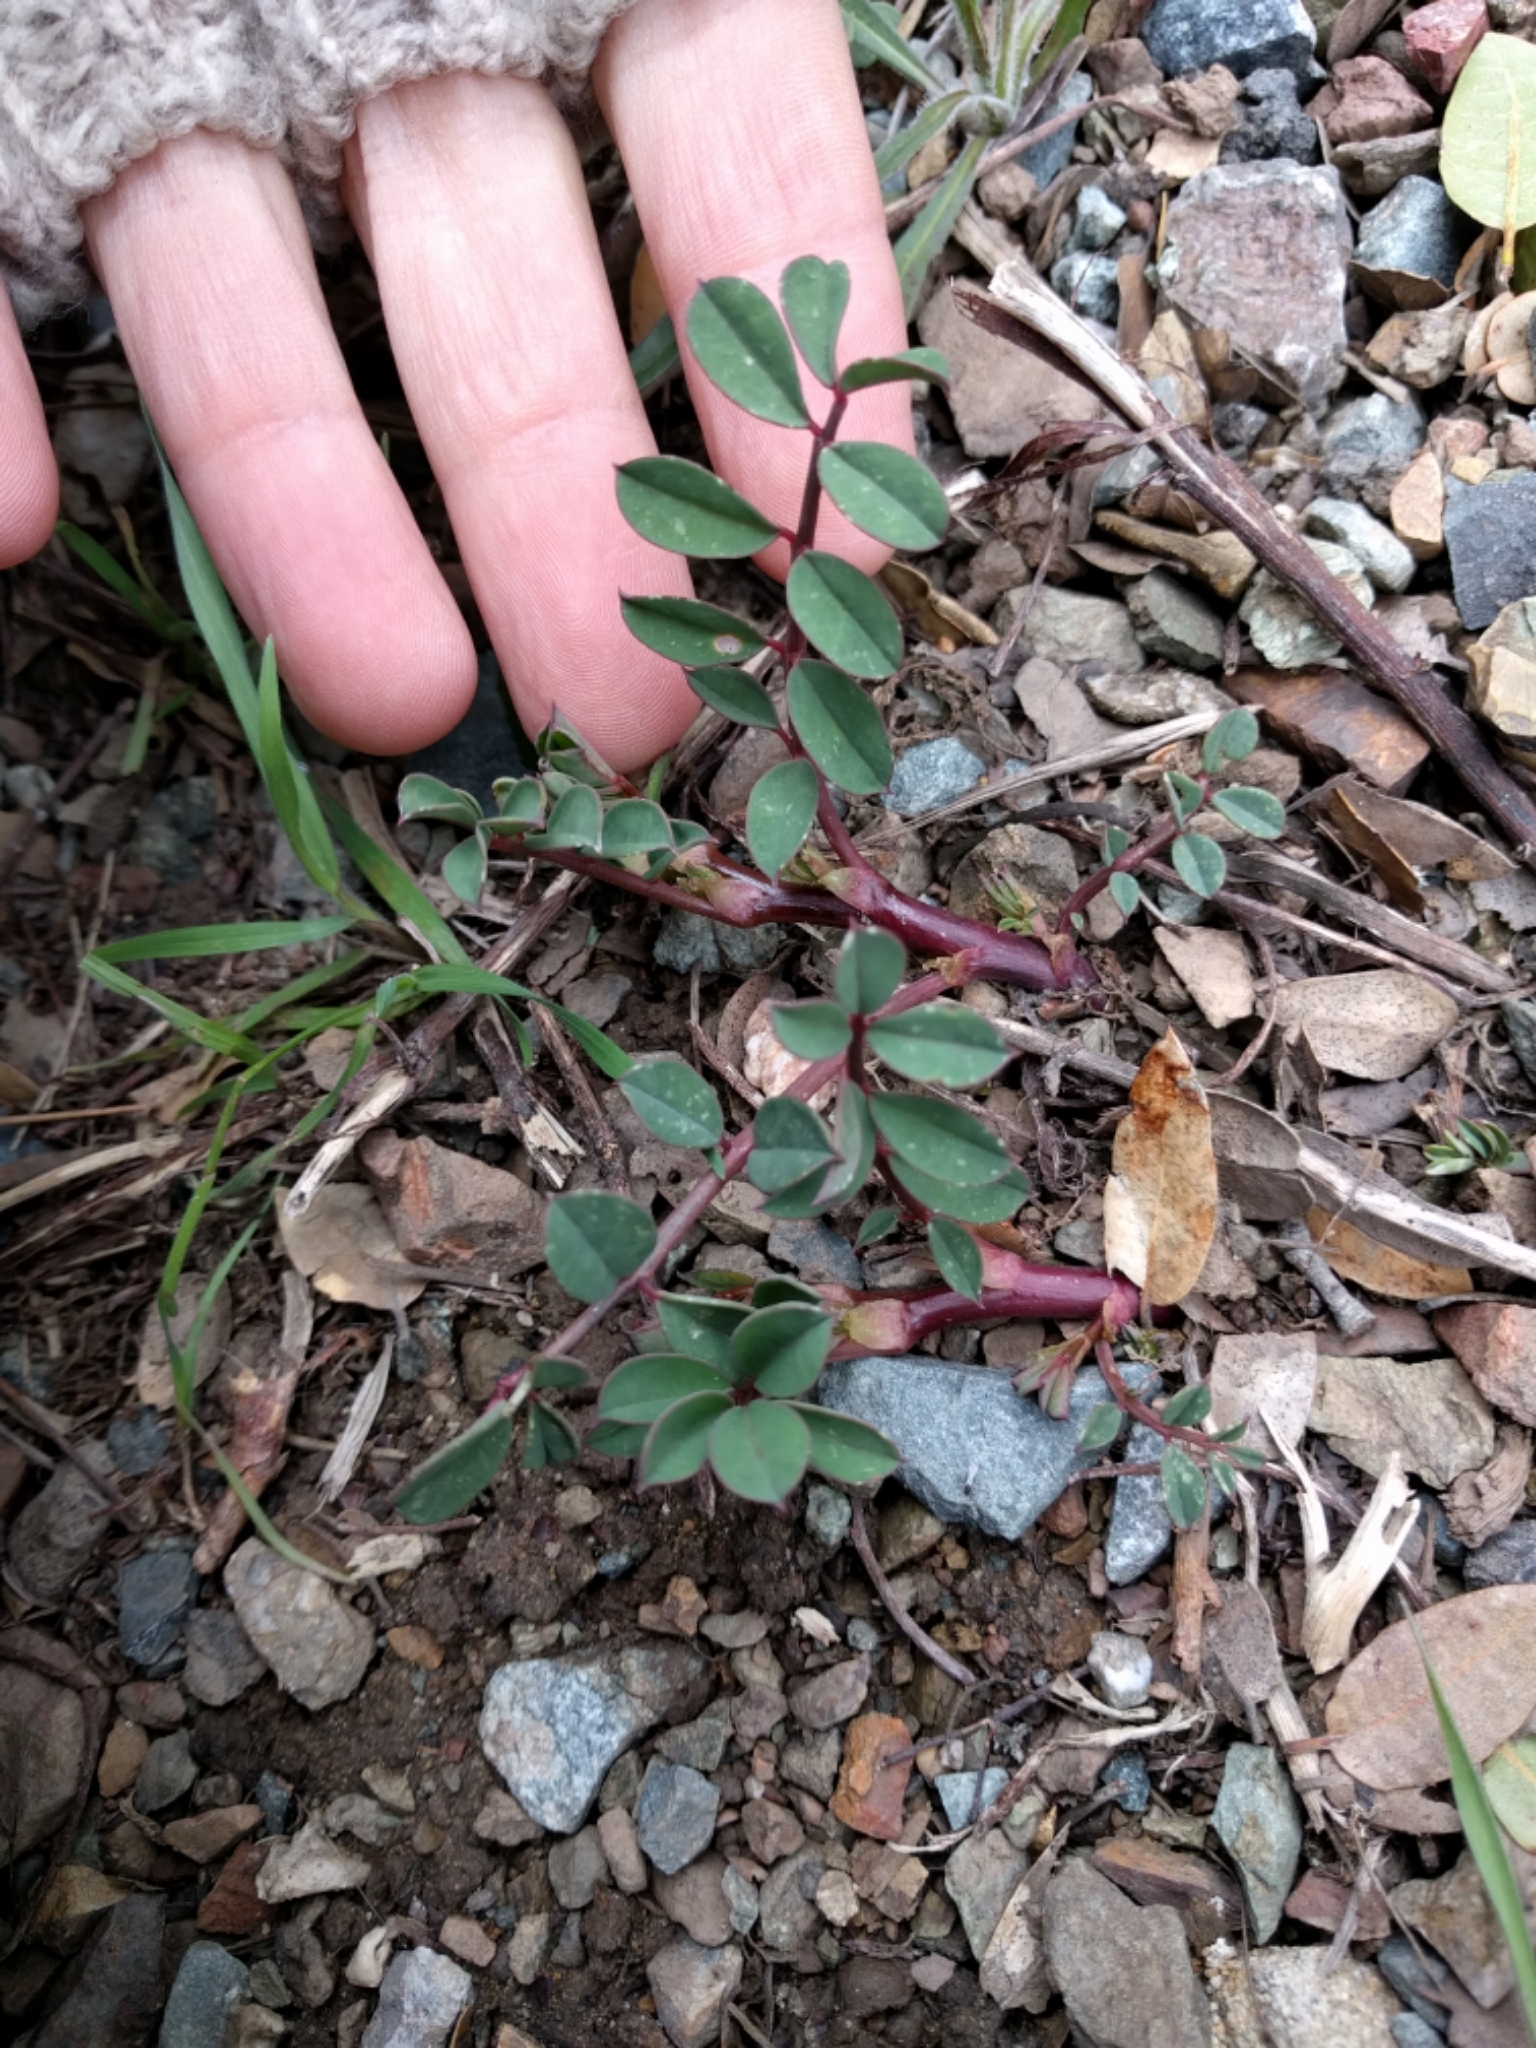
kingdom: Plantae
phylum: Tracheophyta
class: Magnoliopsida
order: Fabales
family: Fabaceae
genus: Hosackia
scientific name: Hosackia crassifolia
